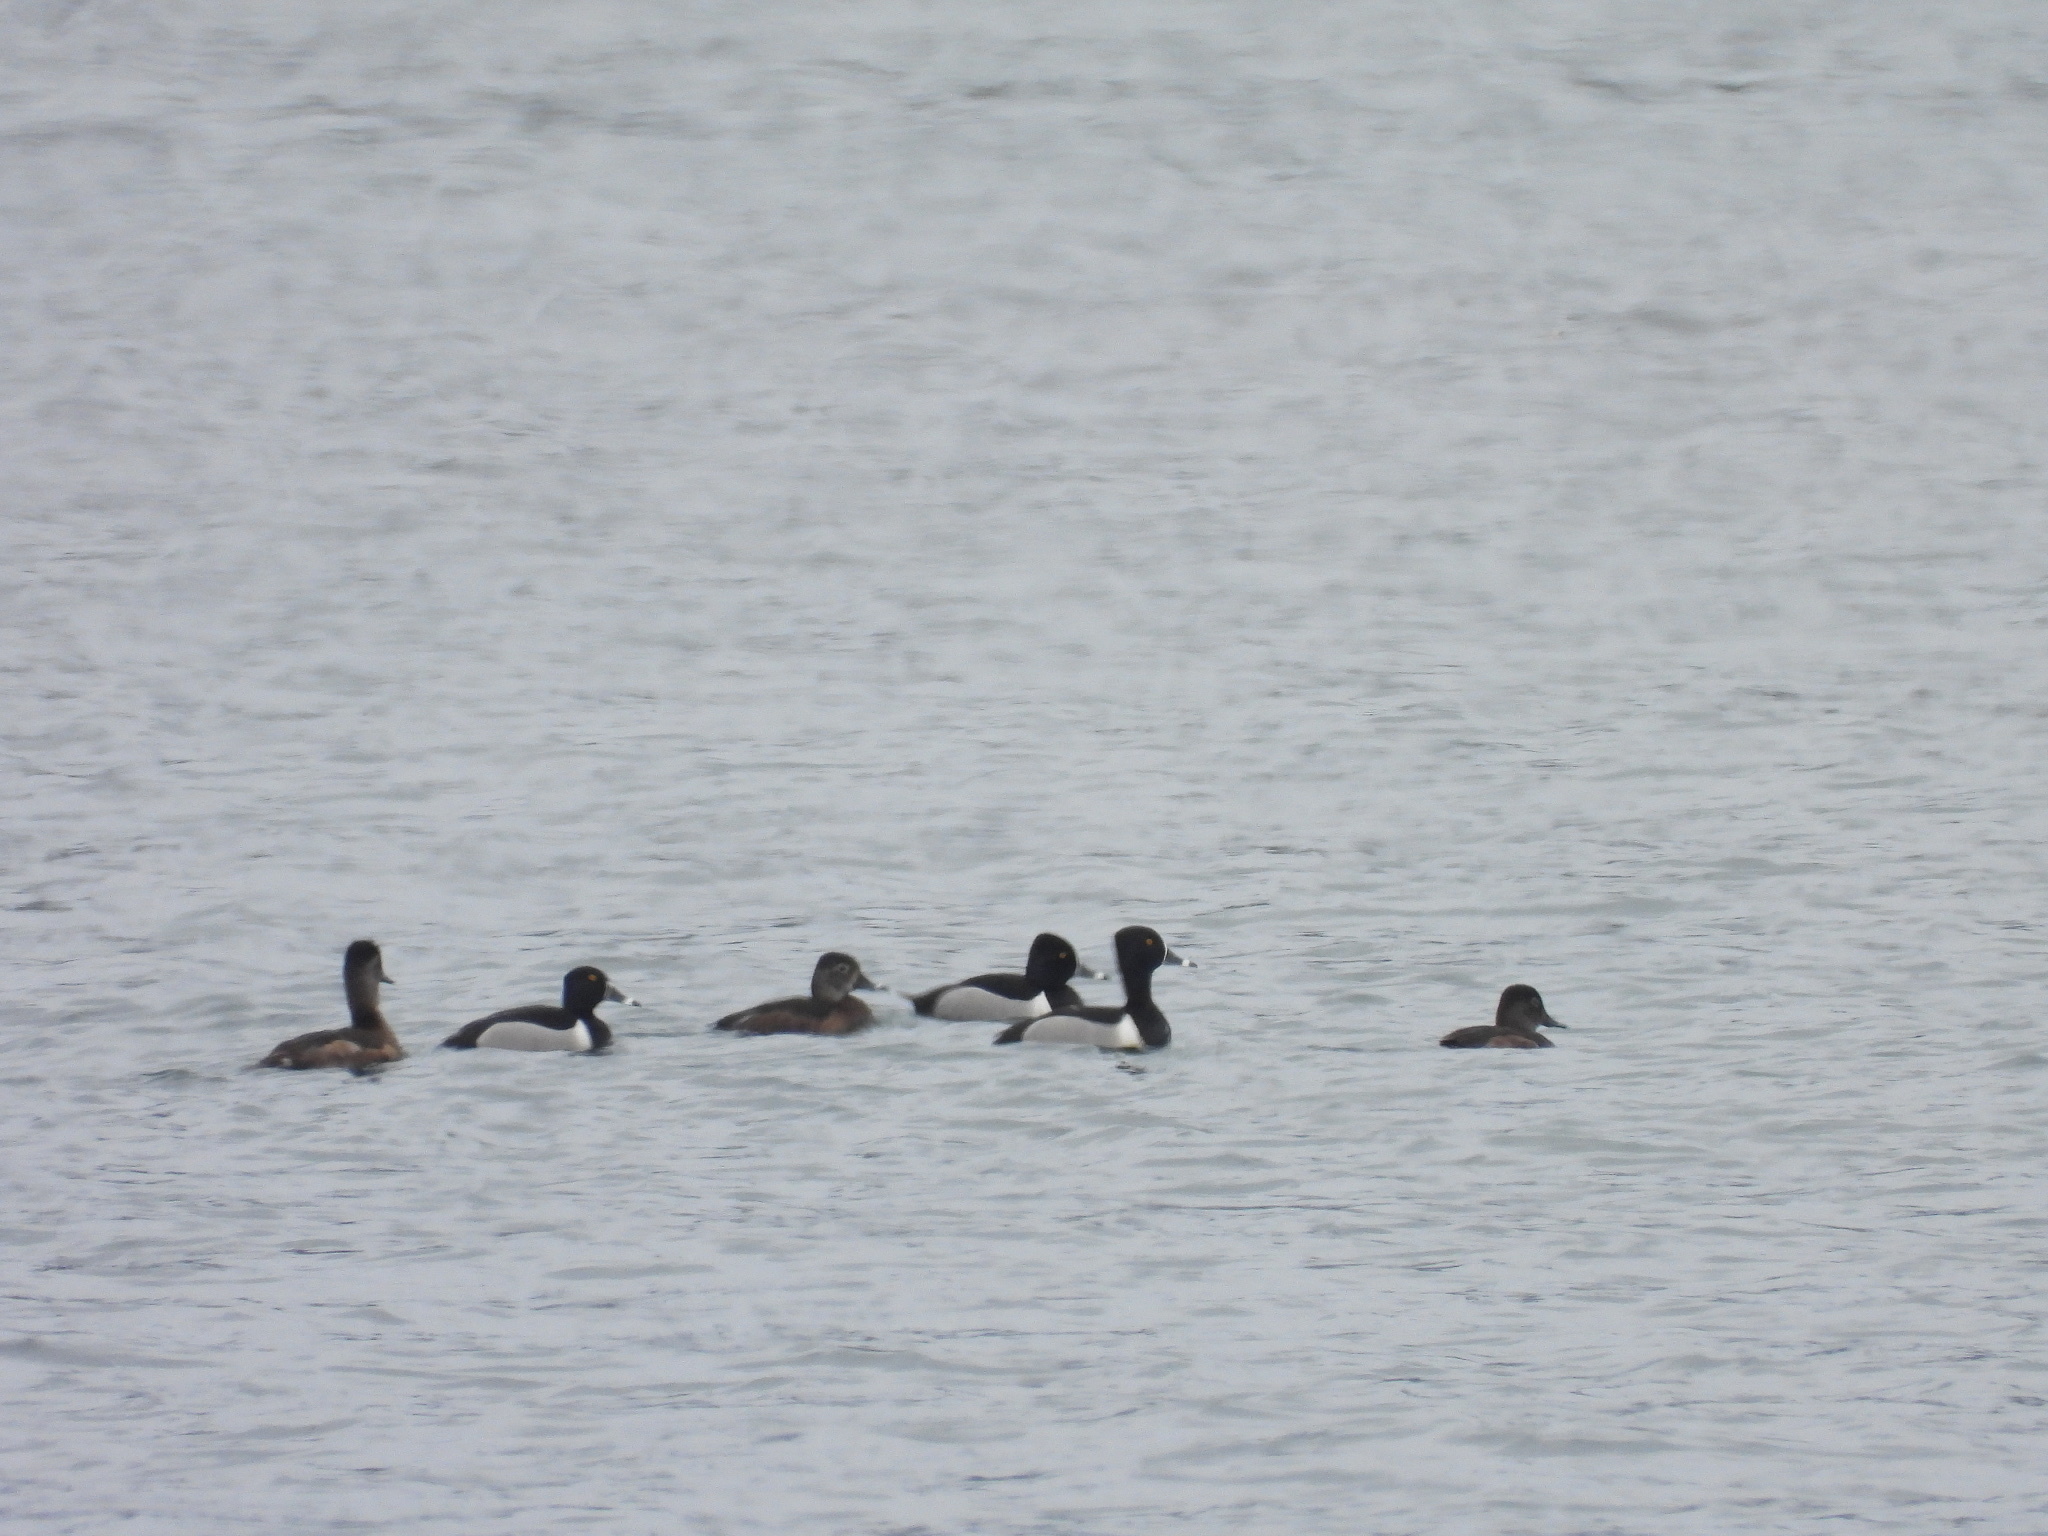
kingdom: Animalia
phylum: Chordata
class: Aves
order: Anseriformes
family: Anatidae
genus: Aythya
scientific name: Aythya collaris
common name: Ring-necked duck
